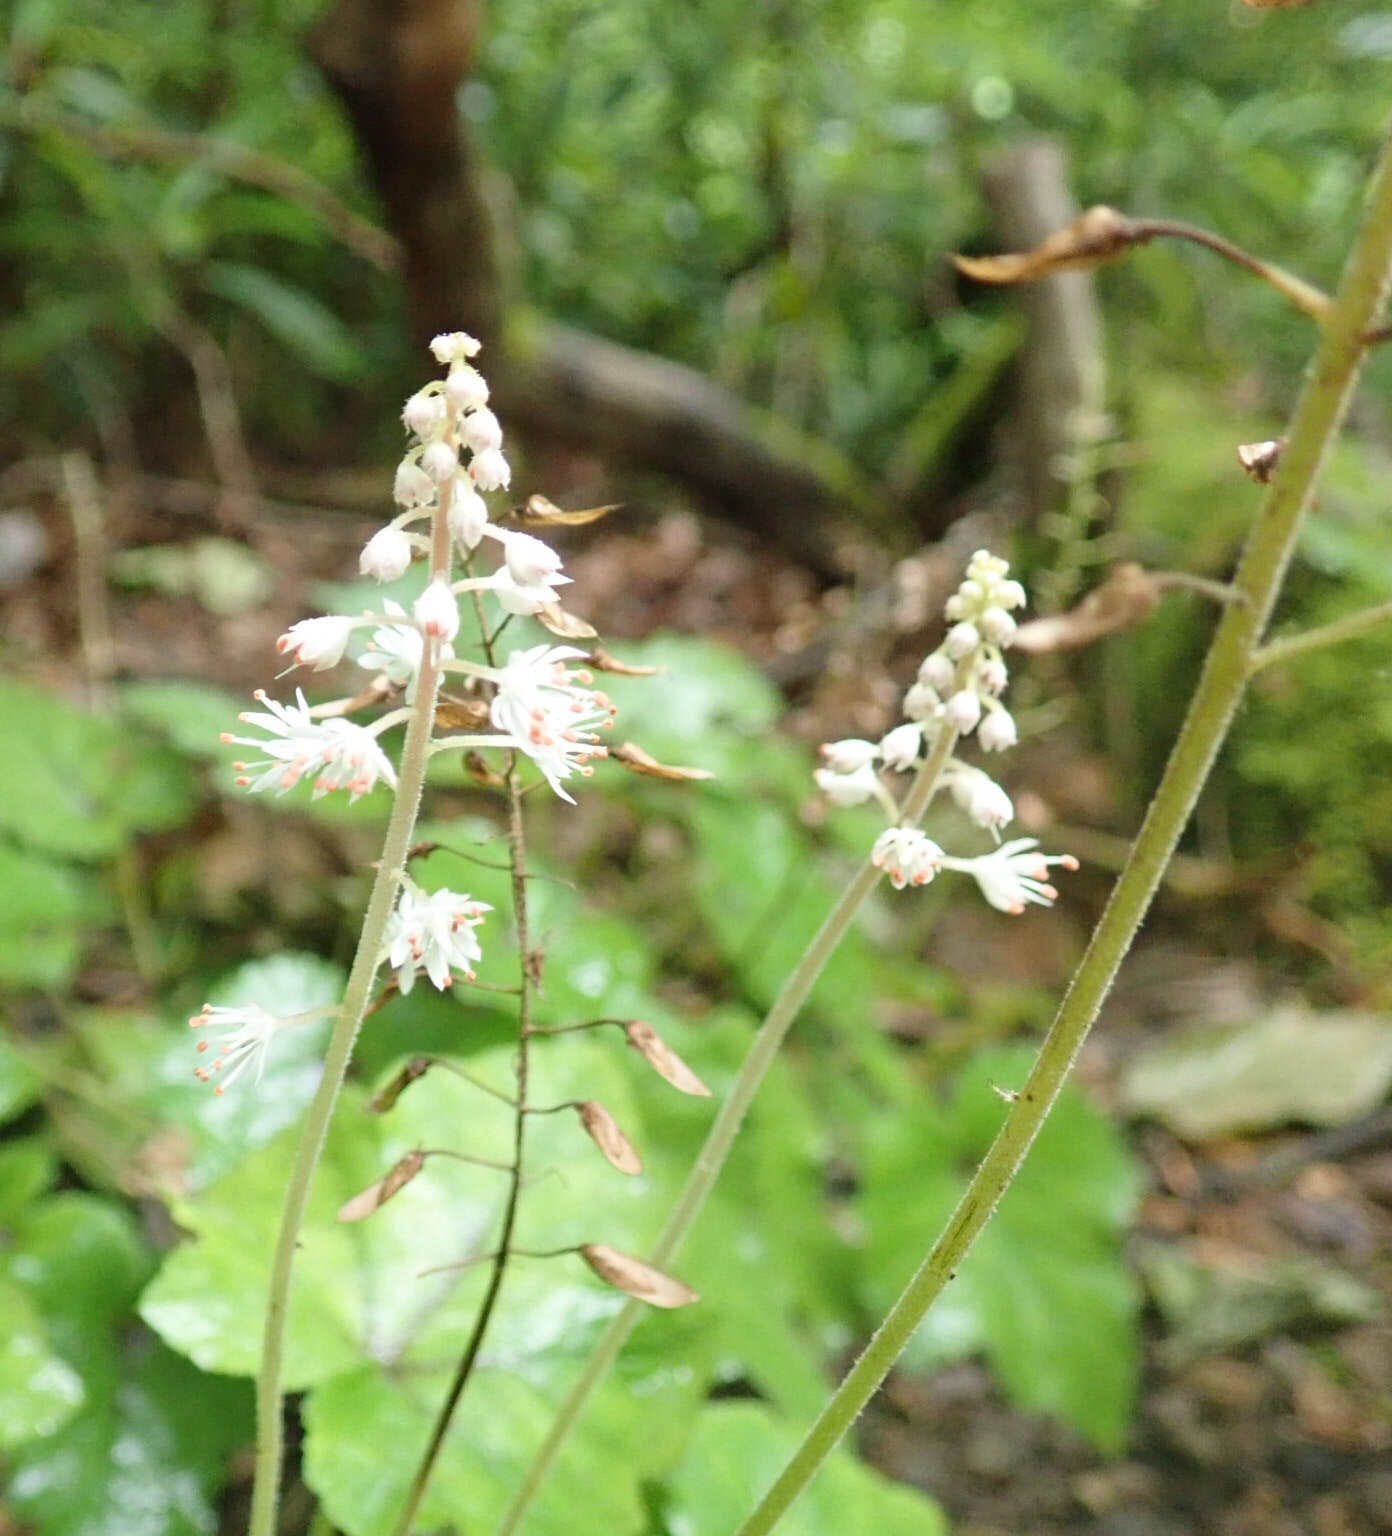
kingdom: Plantae
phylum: Tracheophyta
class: Magnoliopsida
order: Saxifragales
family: Saxifragaceae
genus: Tiarella
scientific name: Tiarella stolonifera
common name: Stoloniferous foamflower
